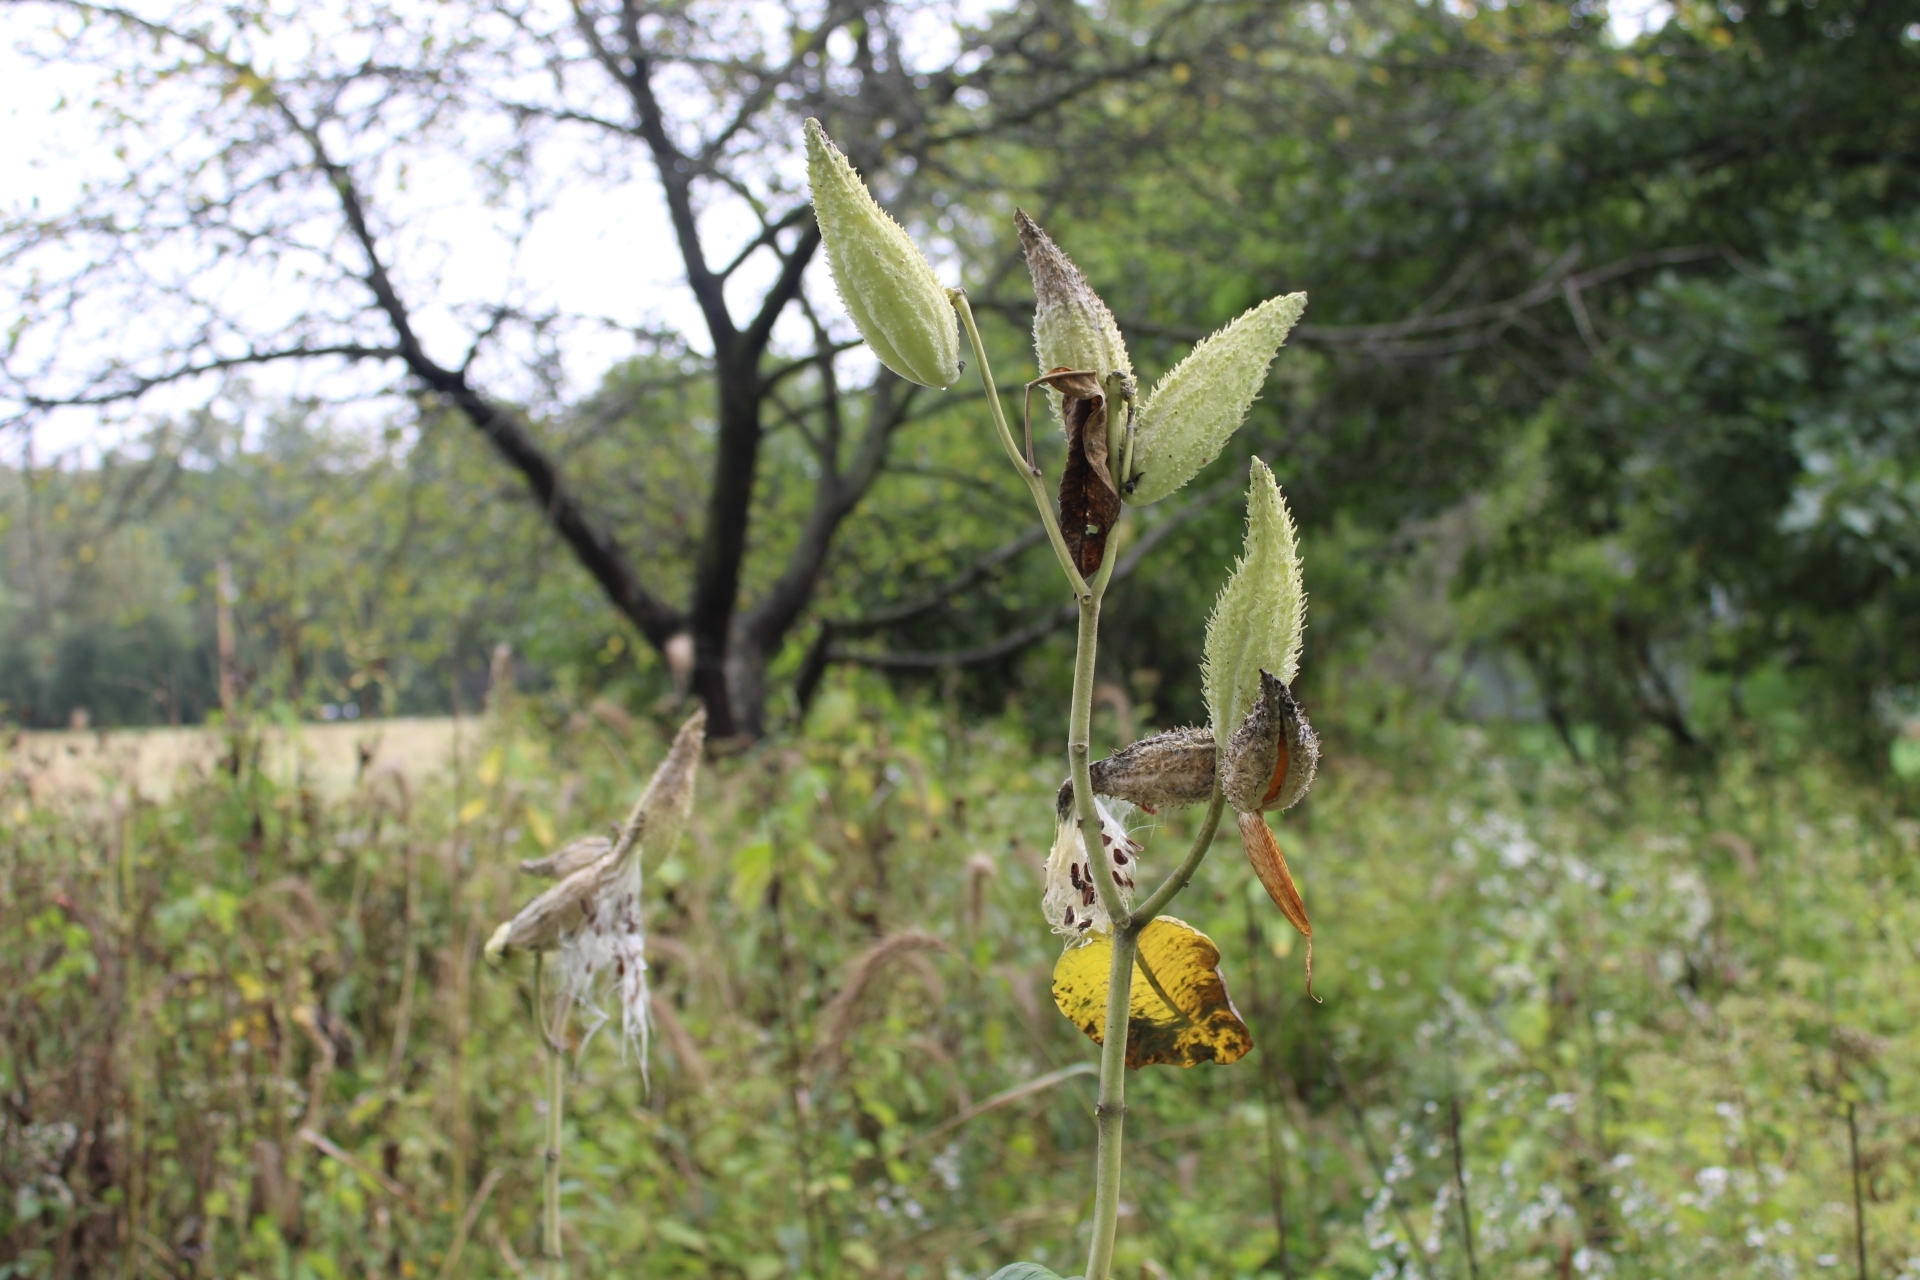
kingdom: Plantae
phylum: Tracheophyta
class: Magnoliopsida
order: Gentianales
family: Apocynaceae
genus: Asclepias
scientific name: Asclepias syriaca
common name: Common milkweed
